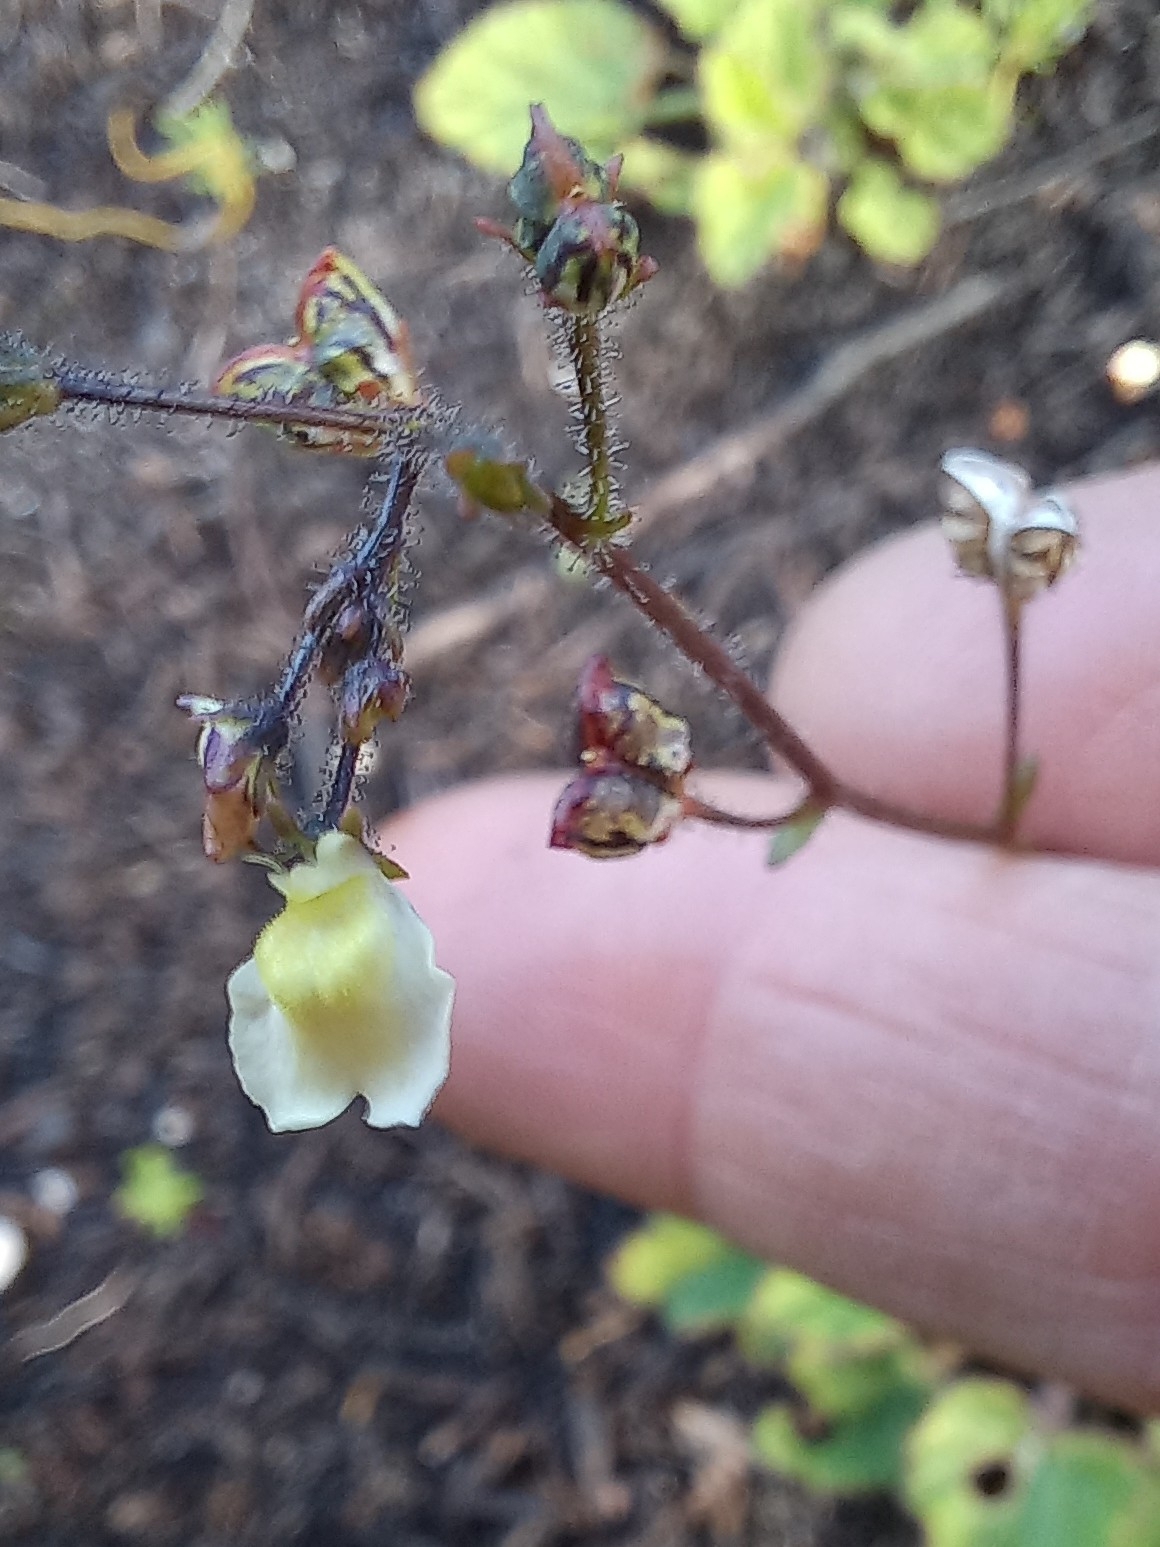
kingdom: Plantae
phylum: Tracheophyta
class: Magnoliopsida
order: Lamiales
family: Scrophulariaceae
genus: Nemesia
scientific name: Nemesia pinnata
